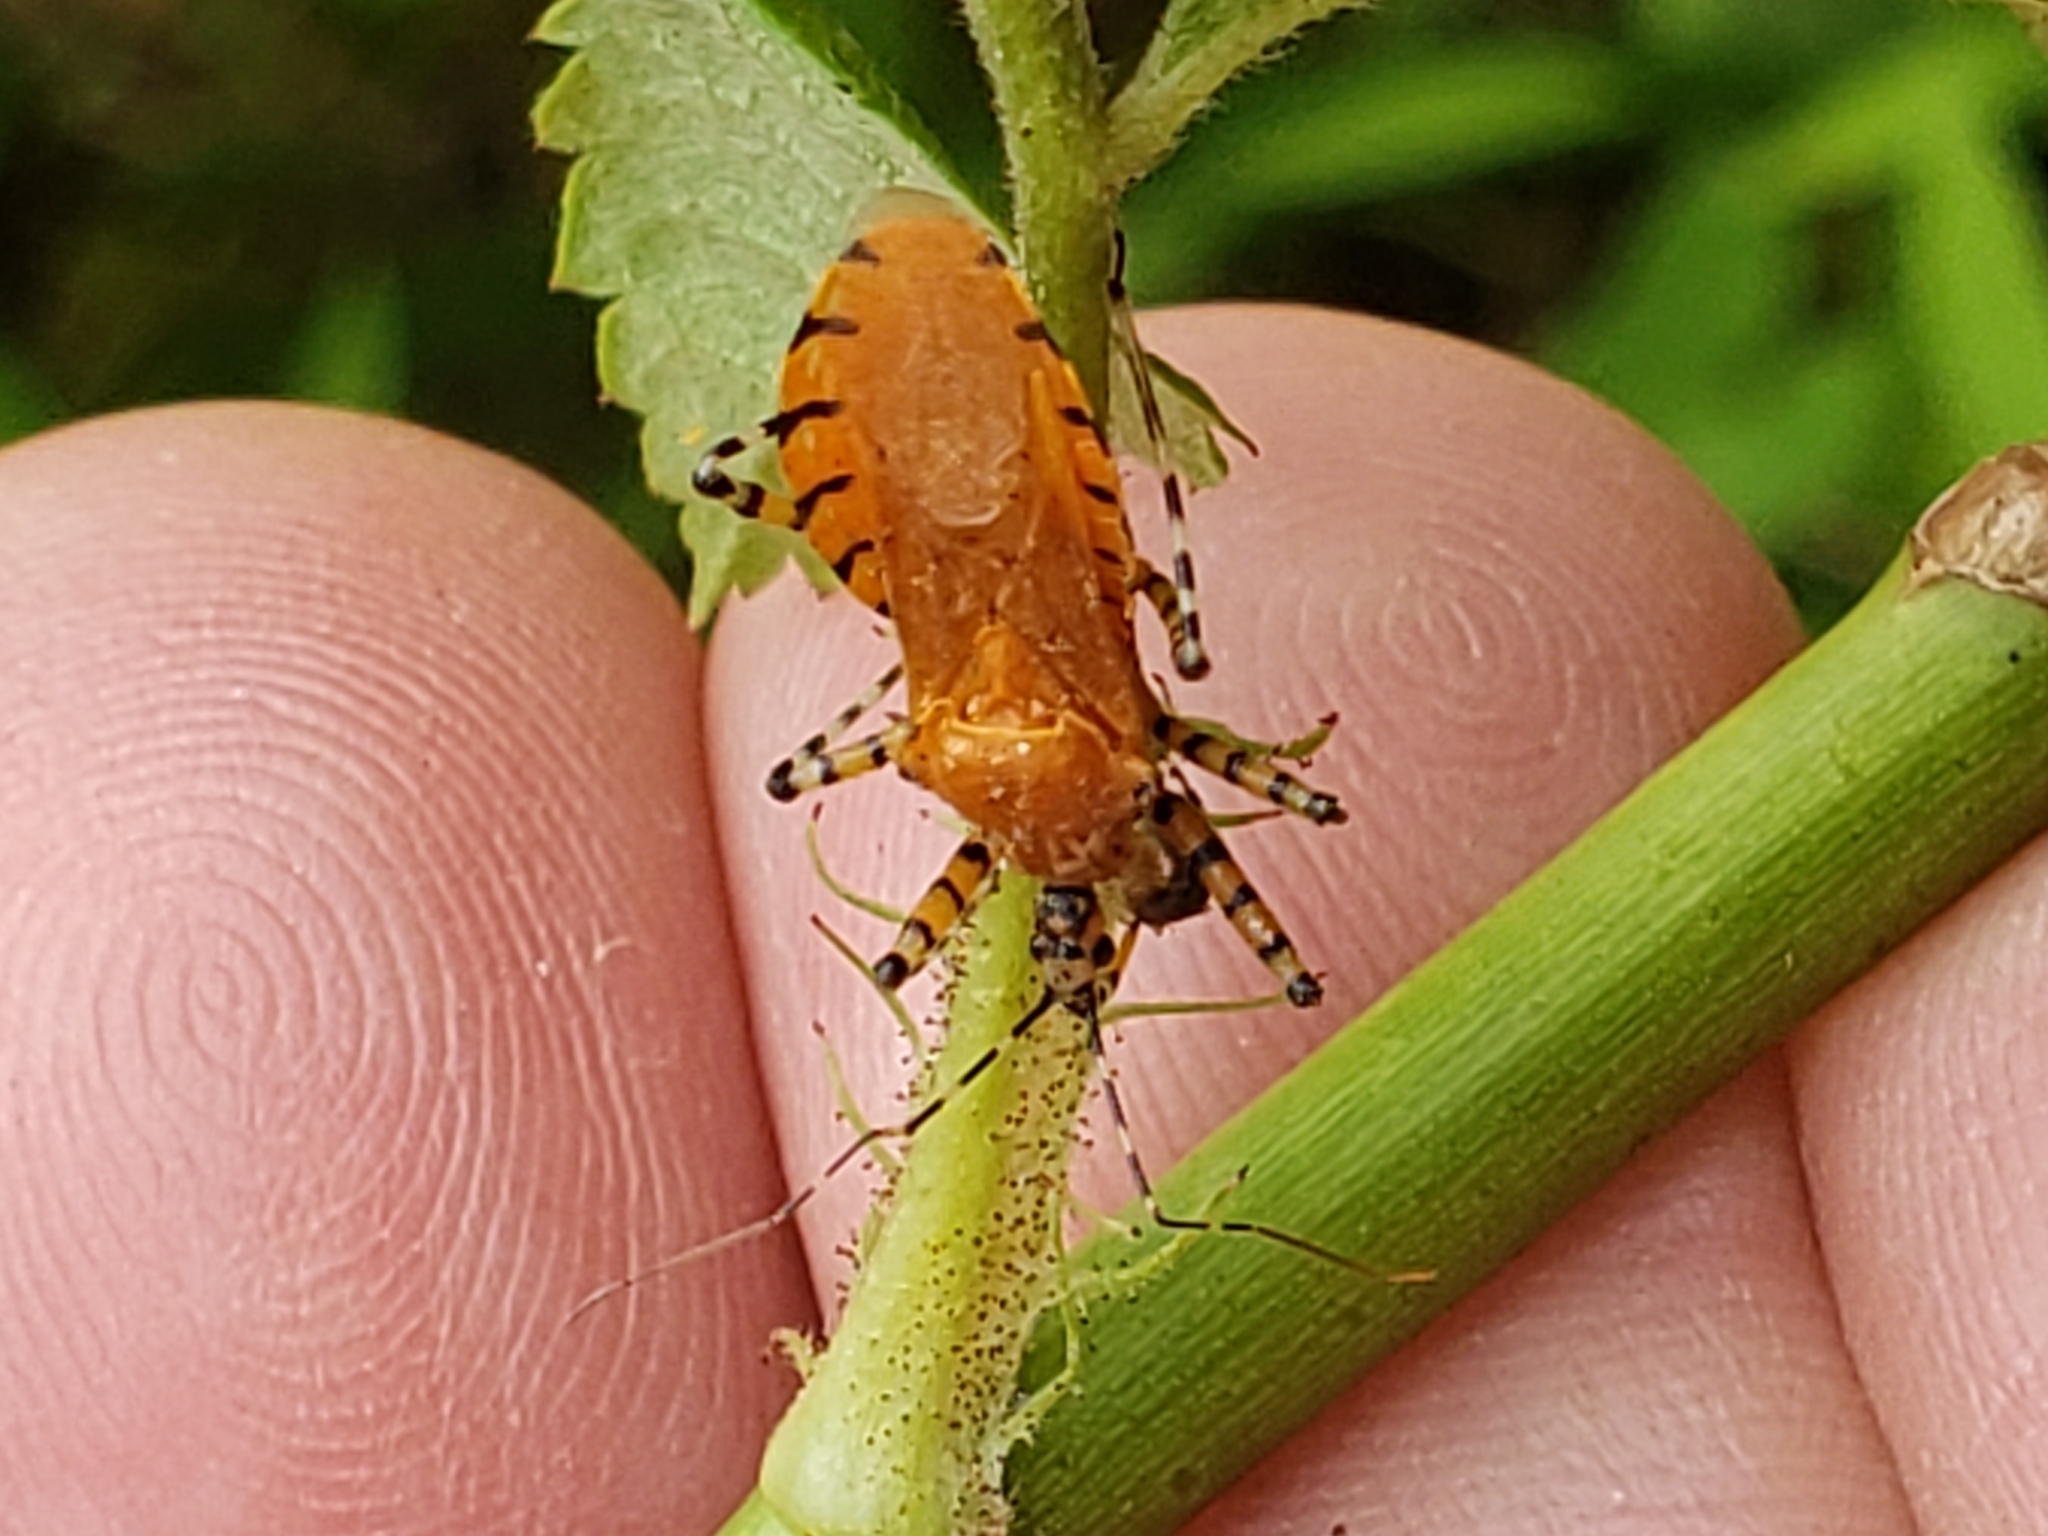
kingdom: Animalia
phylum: Arthropoda
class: Insecta
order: Hemiptera
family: Reduviidae
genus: Pselliopus
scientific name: Pselliopus barberi
